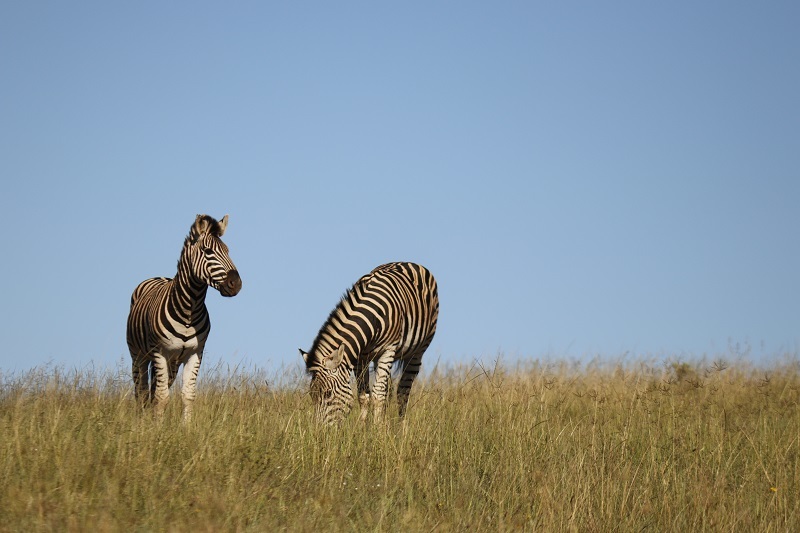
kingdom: Animalia
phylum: Chordata
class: Mammalia
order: Perissodactyla
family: Equidae
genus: Equus
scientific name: Equus quagga
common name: Plains zebra
